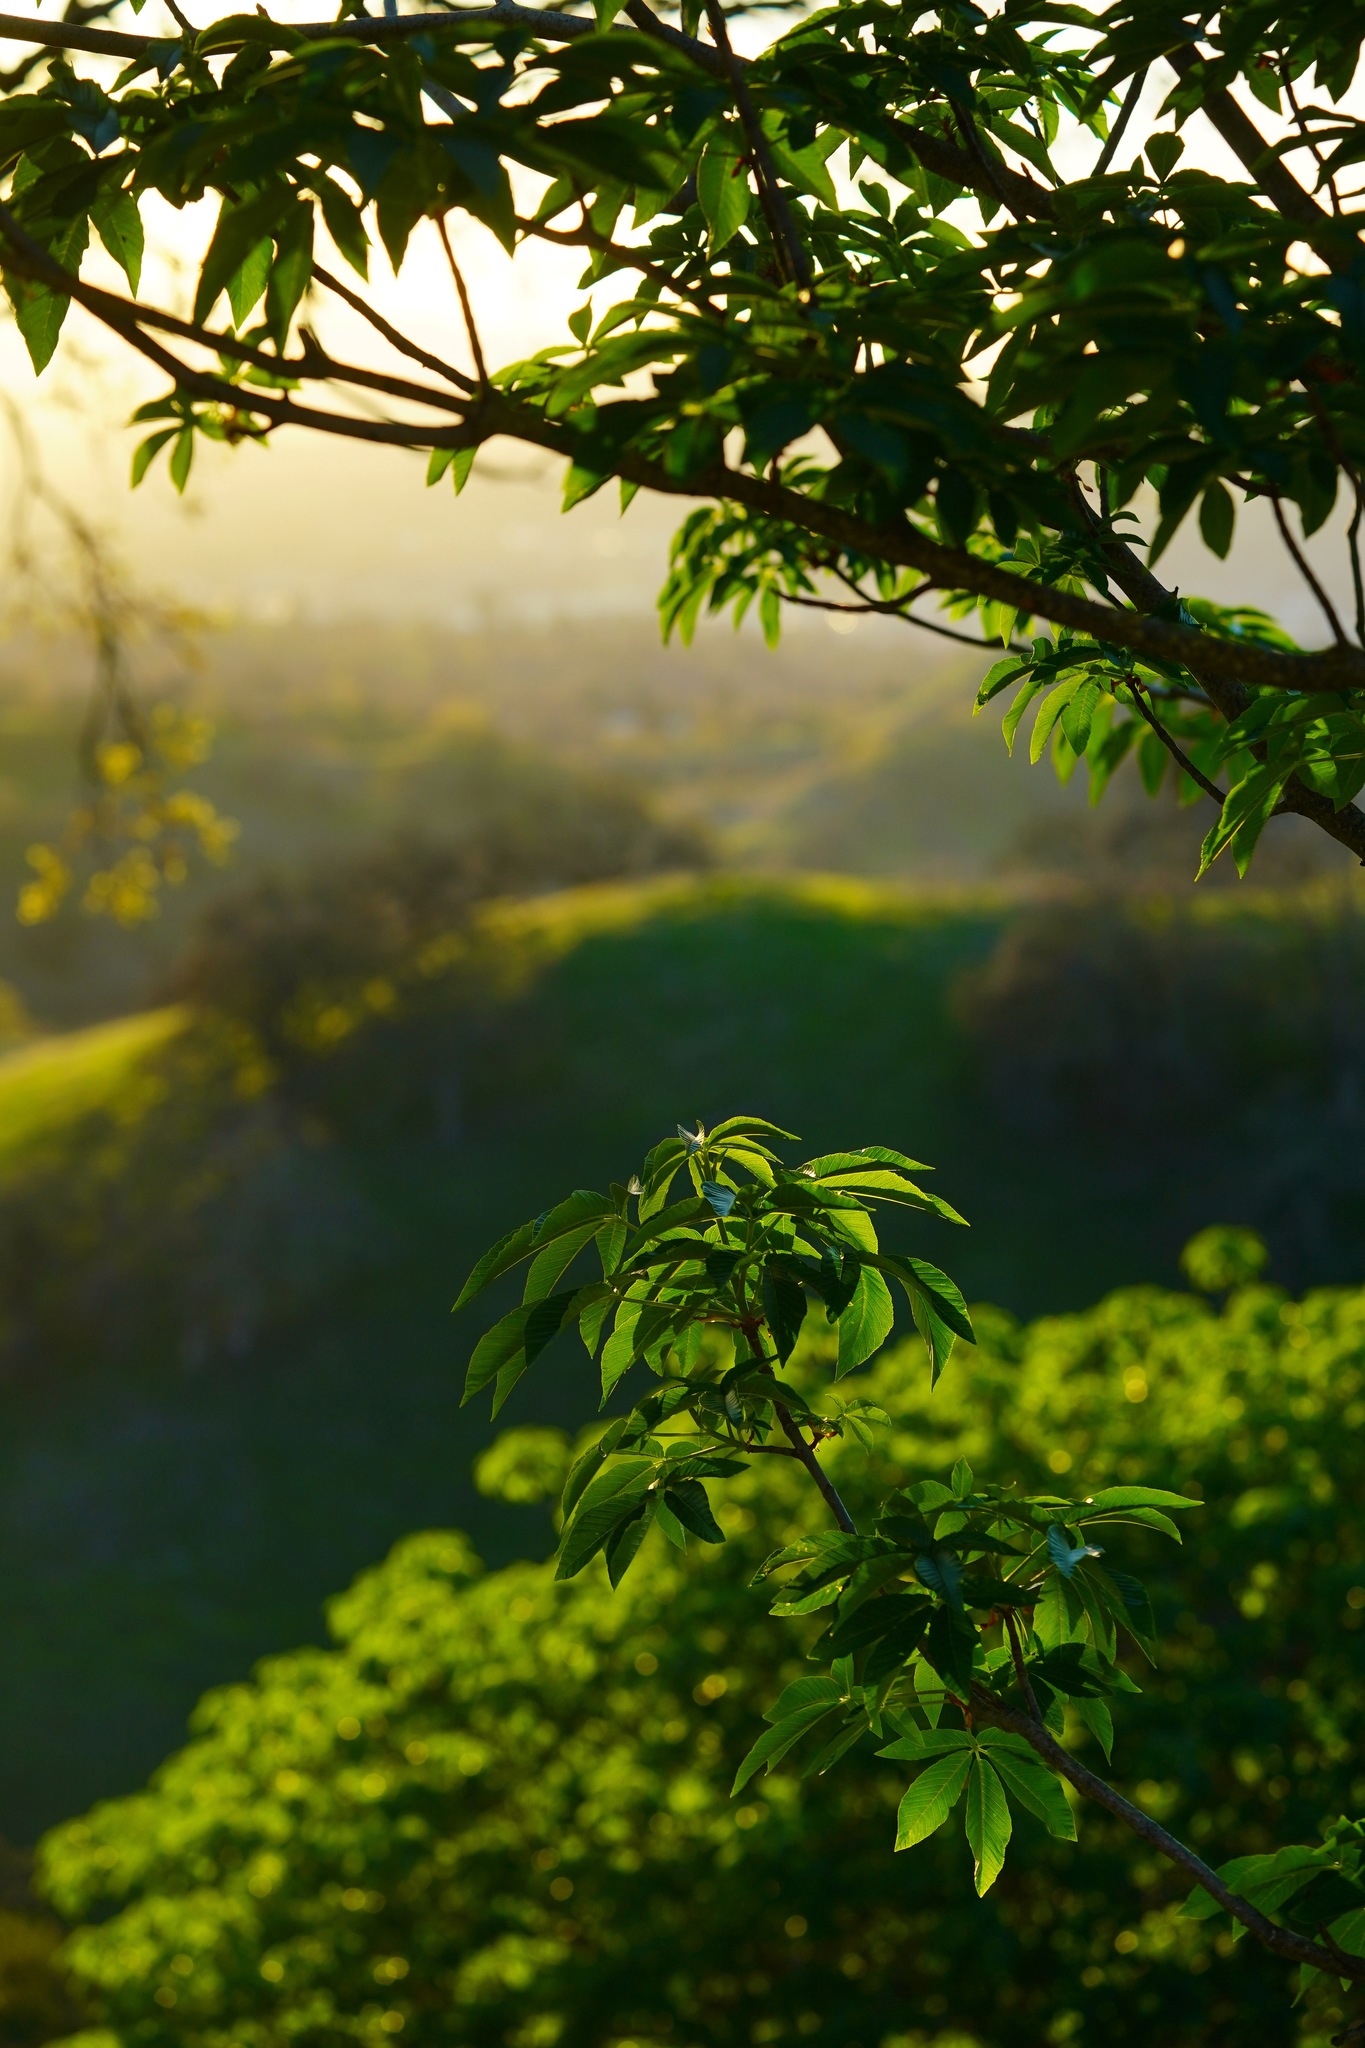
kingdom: Plantae
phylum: Tracheophyta
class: Magnoliopsida
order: Sapindales
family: Sapindaceae
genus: Aesculus
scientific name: Aesculus californica
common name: California buckeye
